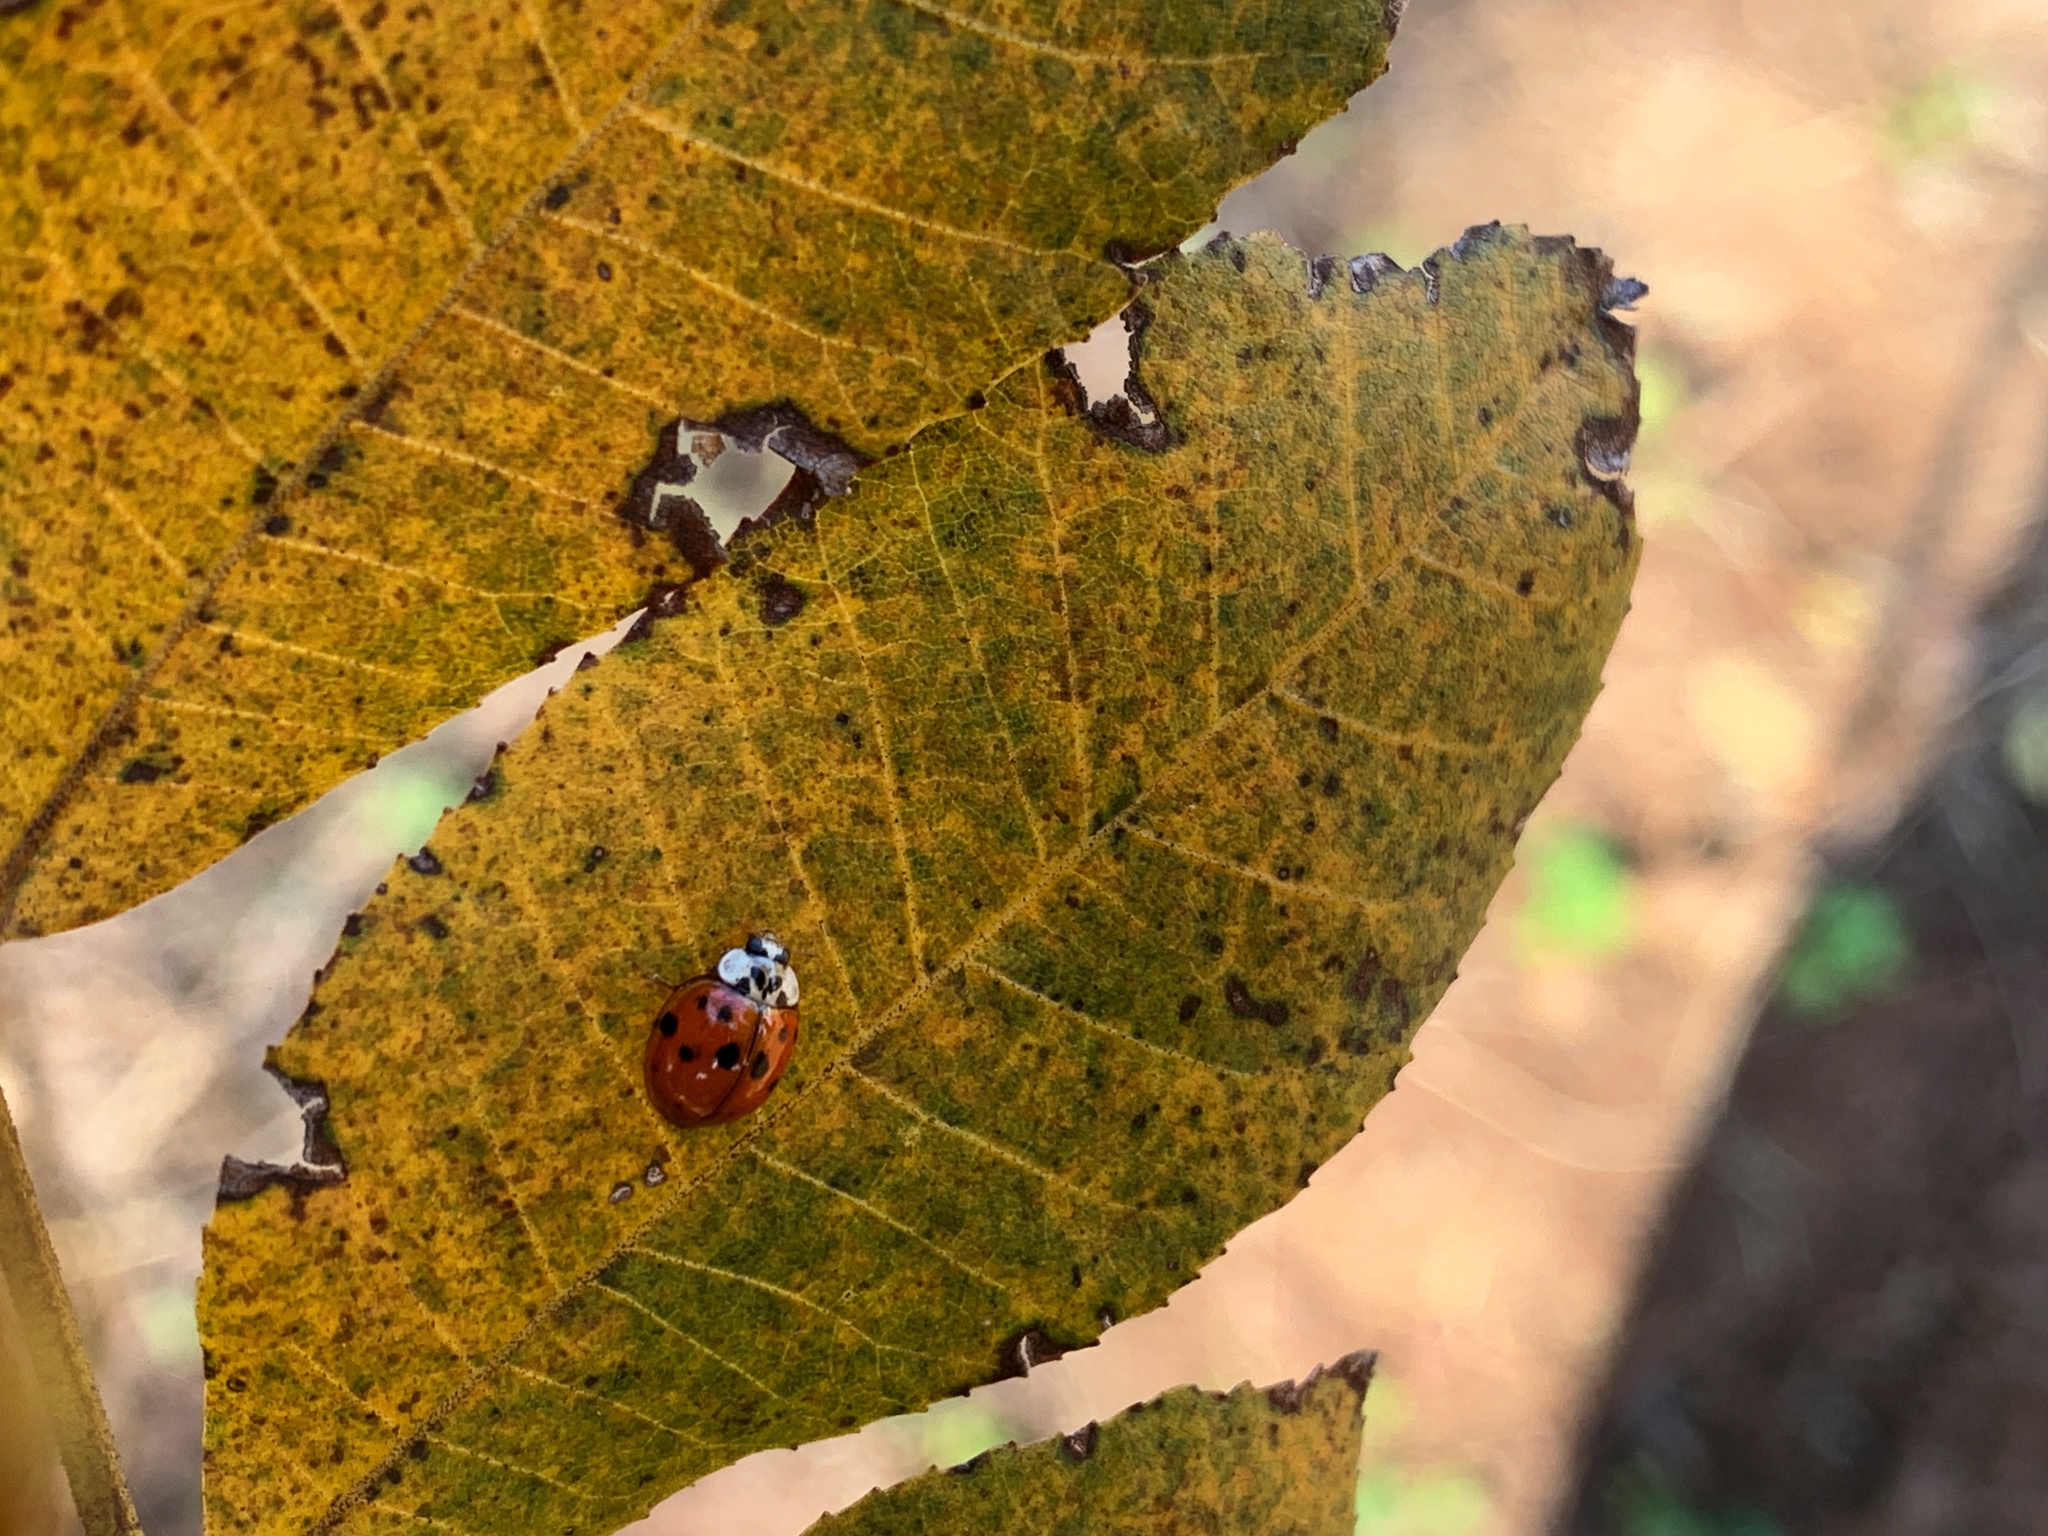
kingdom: Animalia
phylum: Arthropoda
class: Insecta
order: Coleoptera
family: Coccinellidae
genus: Harmonia
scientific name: Harmonia axyridis
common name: Harlequin ladybird
